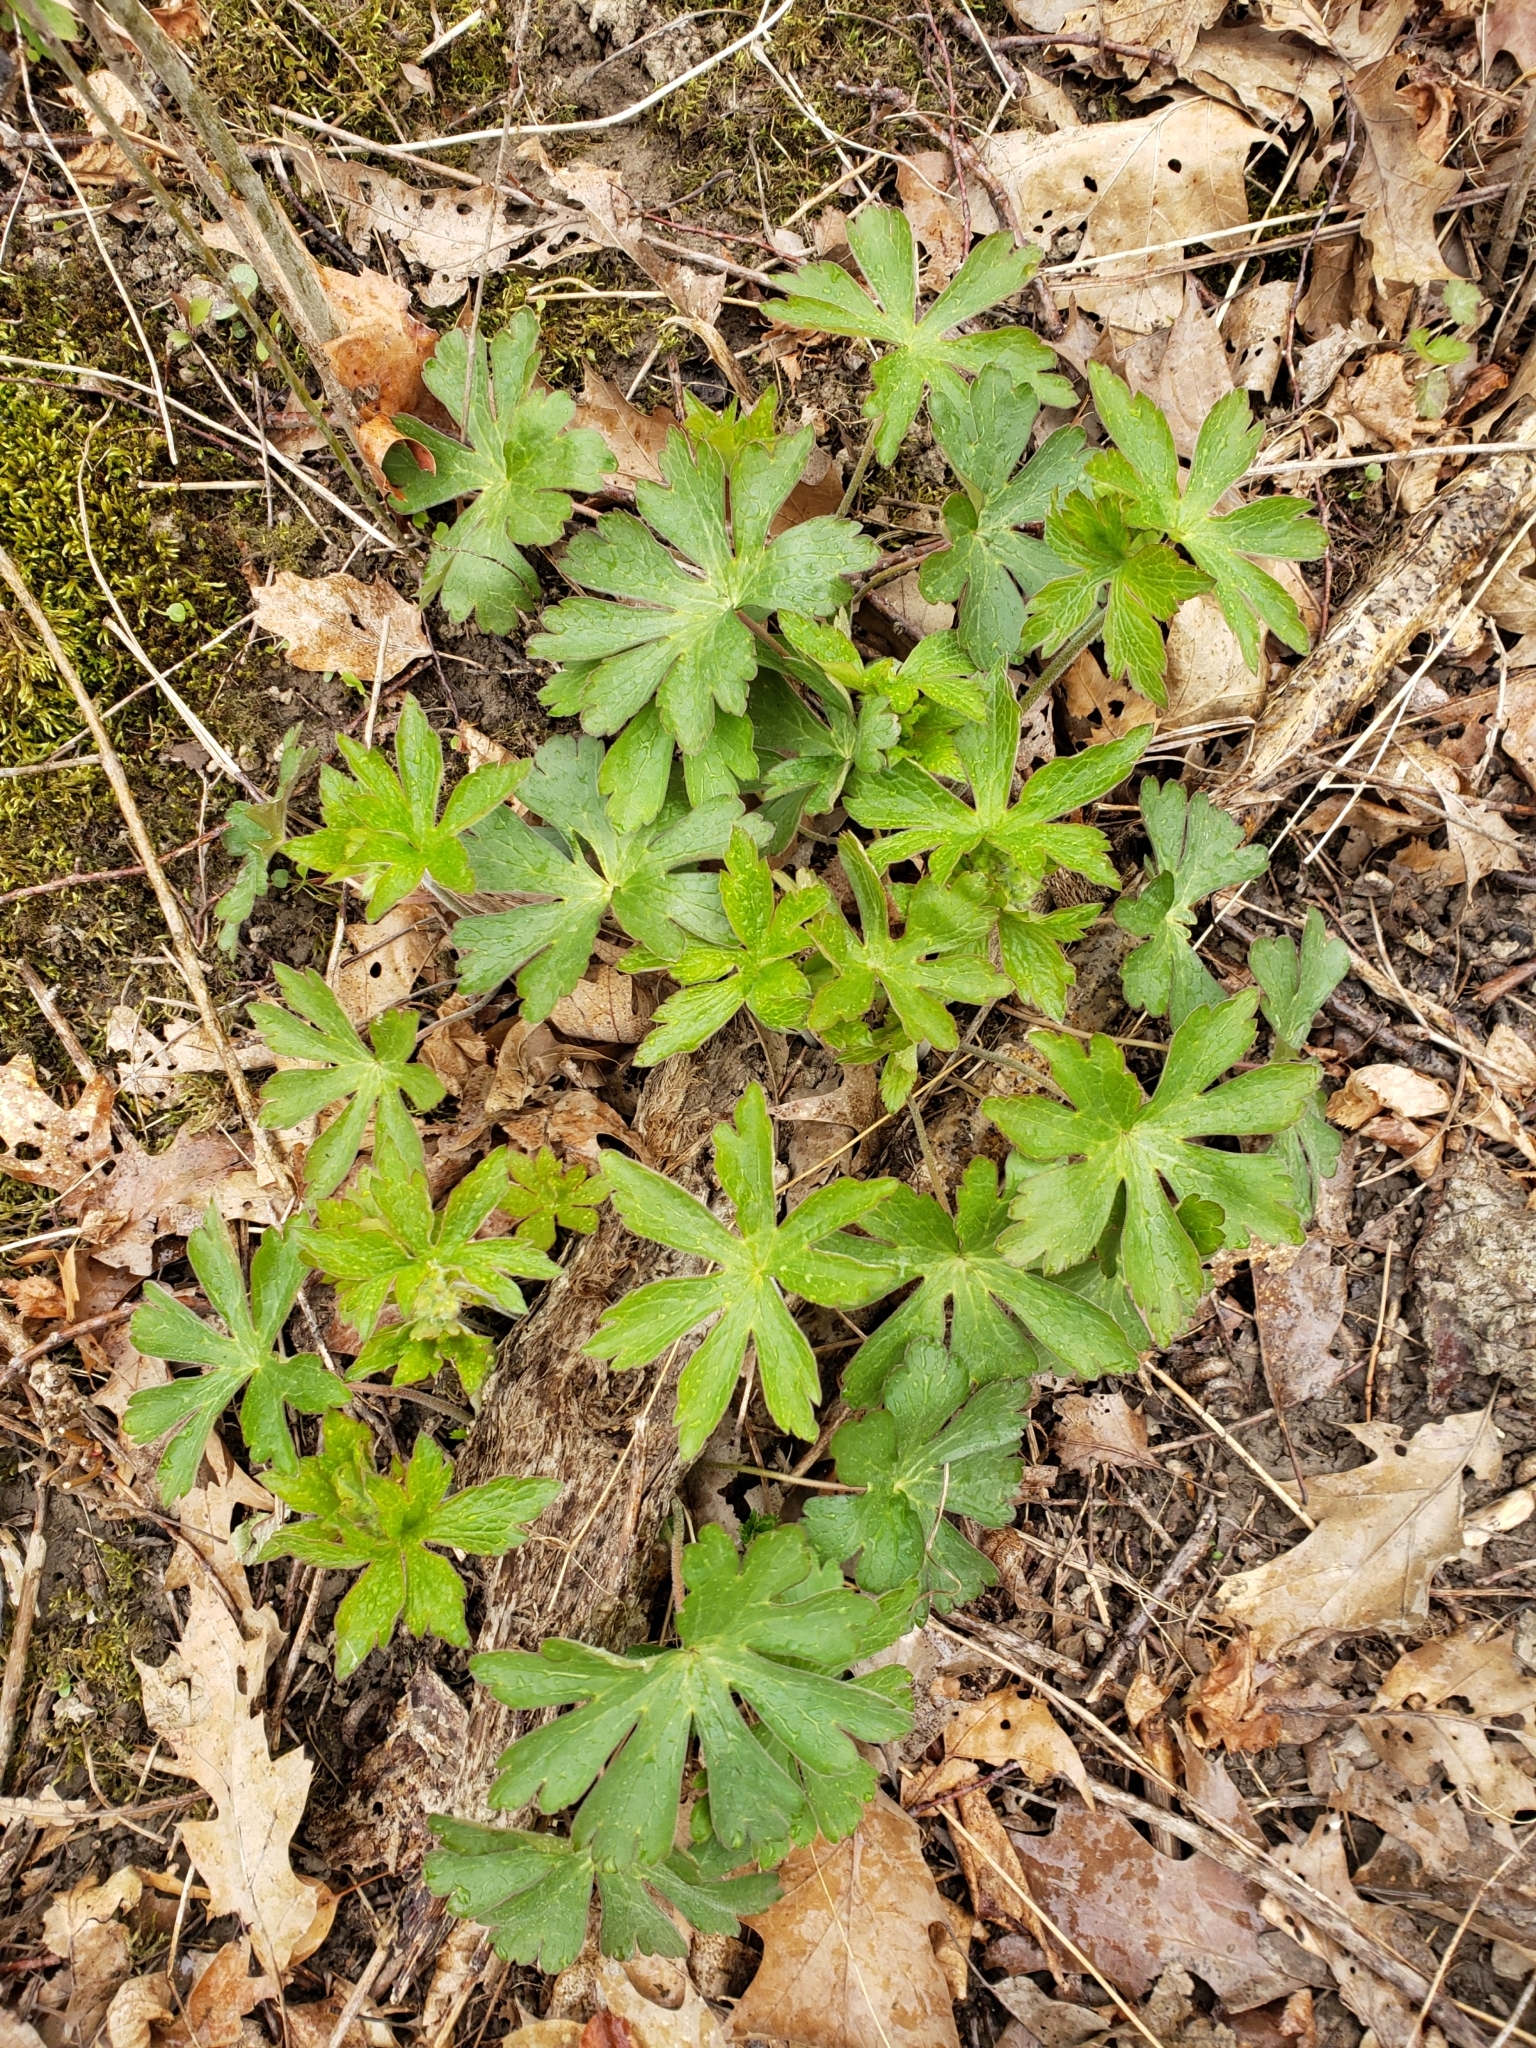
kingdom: Plantae
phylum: Tracheophyta
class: Magnoliopsida
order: Geraniales
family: Geraniaceae
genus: Geranium
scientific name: Geranium maculatum
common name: Spotted geranium
